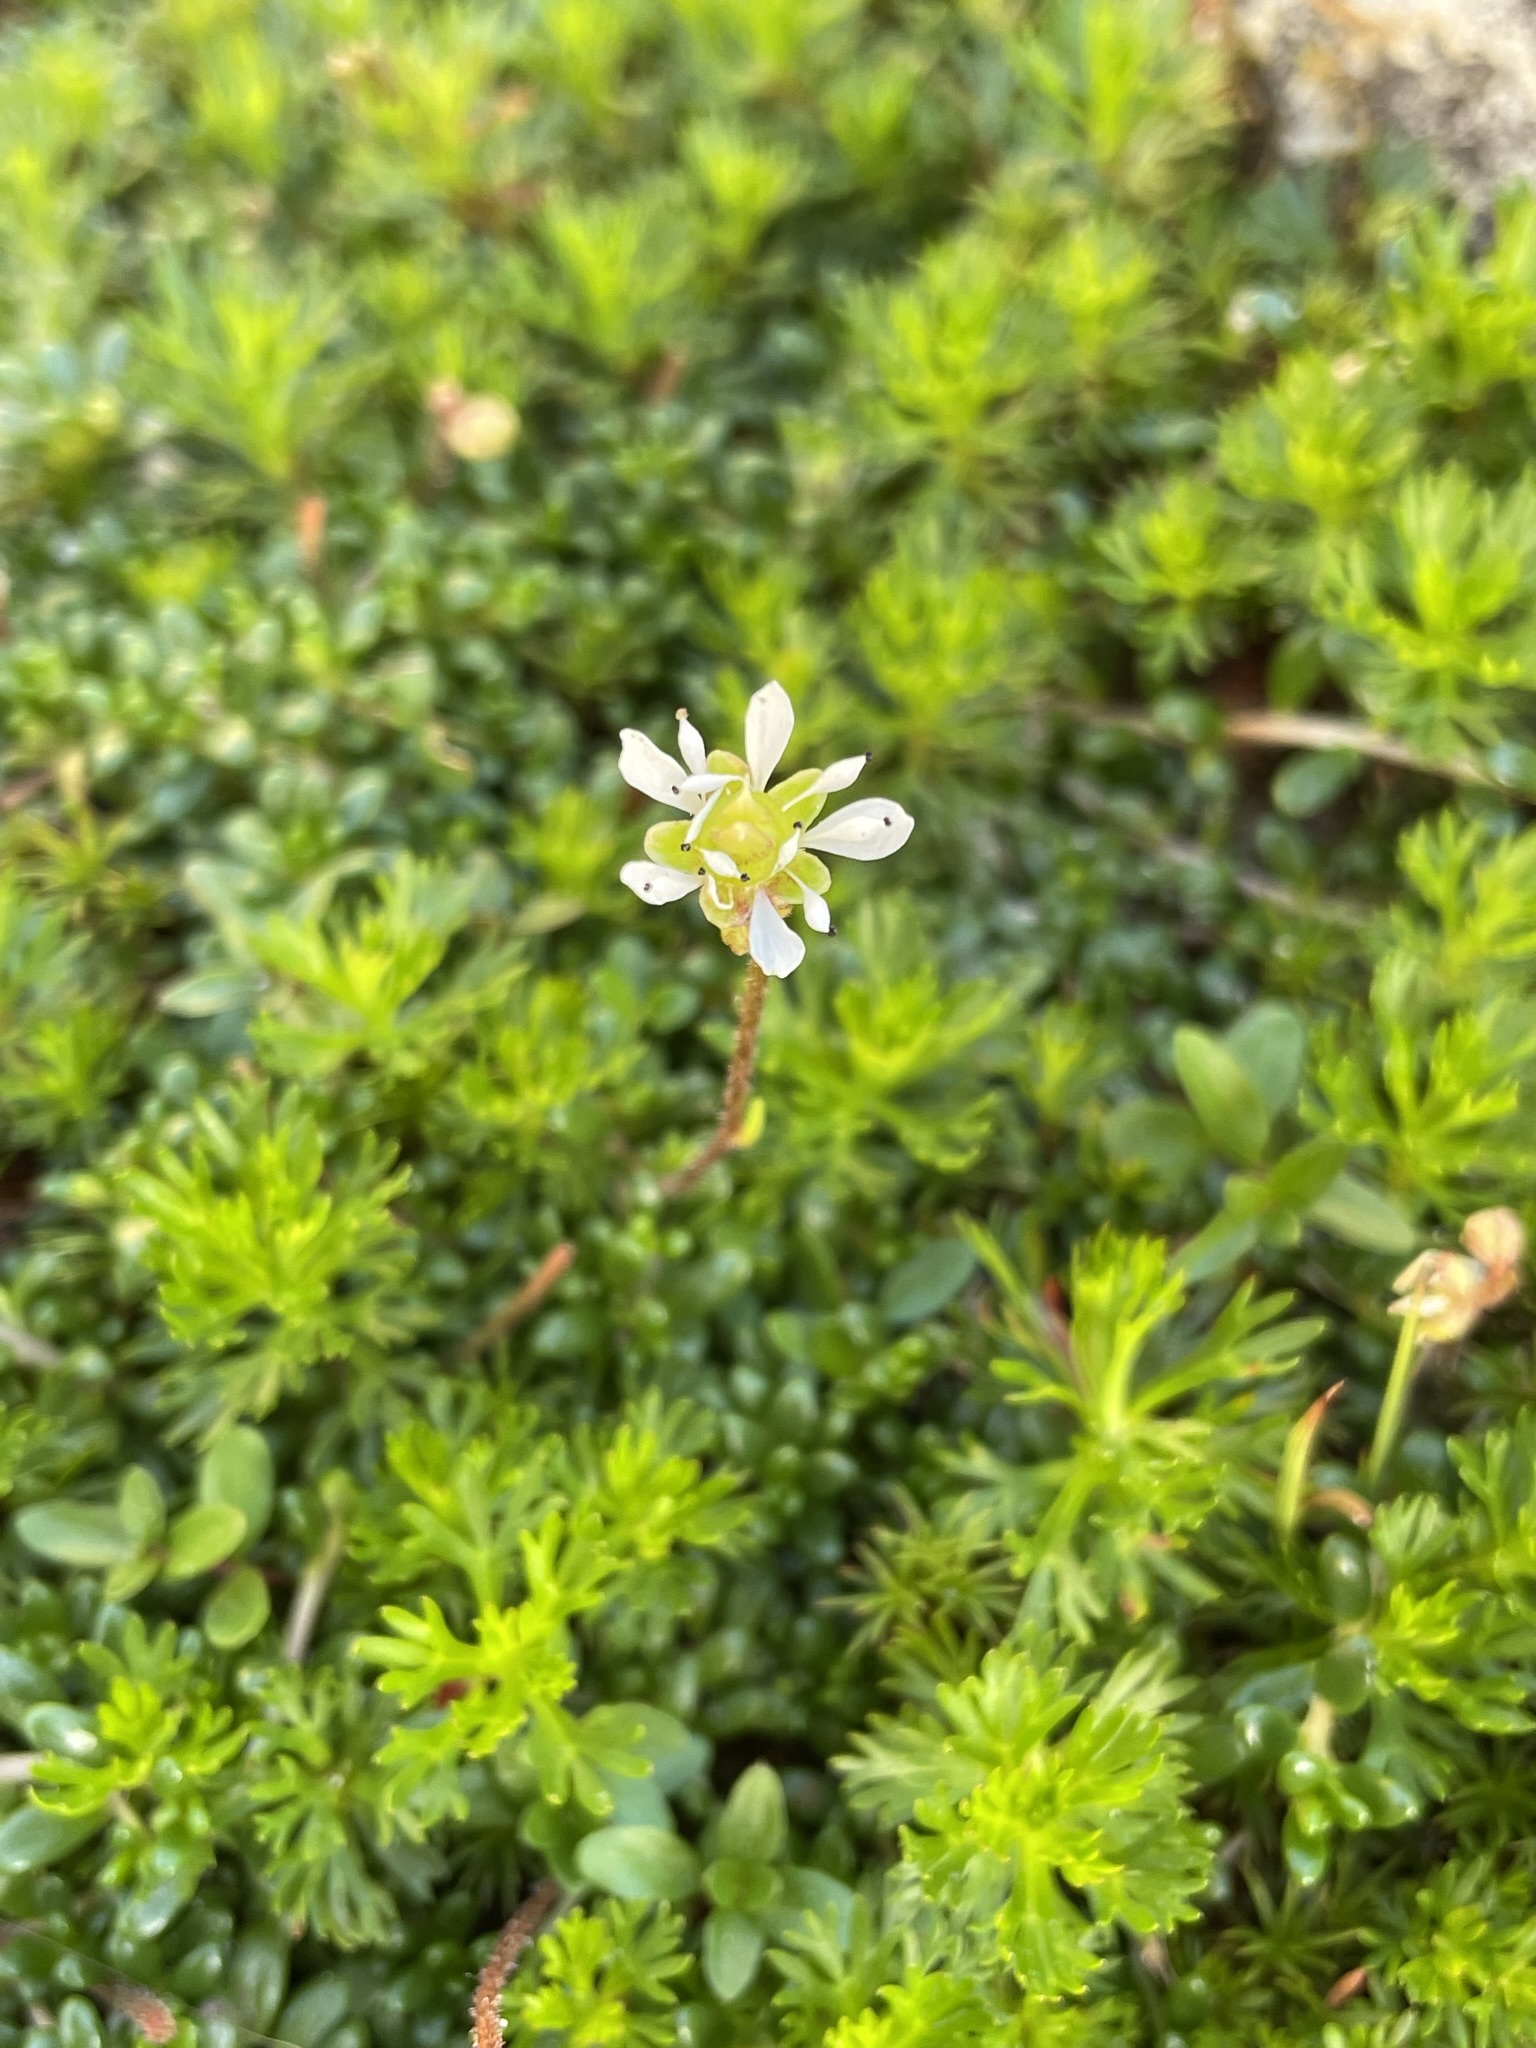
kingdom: Plantae
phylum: Tracheophyta
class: Magnoliopsida
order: Saxifragales
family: Saxifragaceae
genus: Micranthes
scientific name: Micranthes tolmiei
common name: Tolmie's saxifrage
